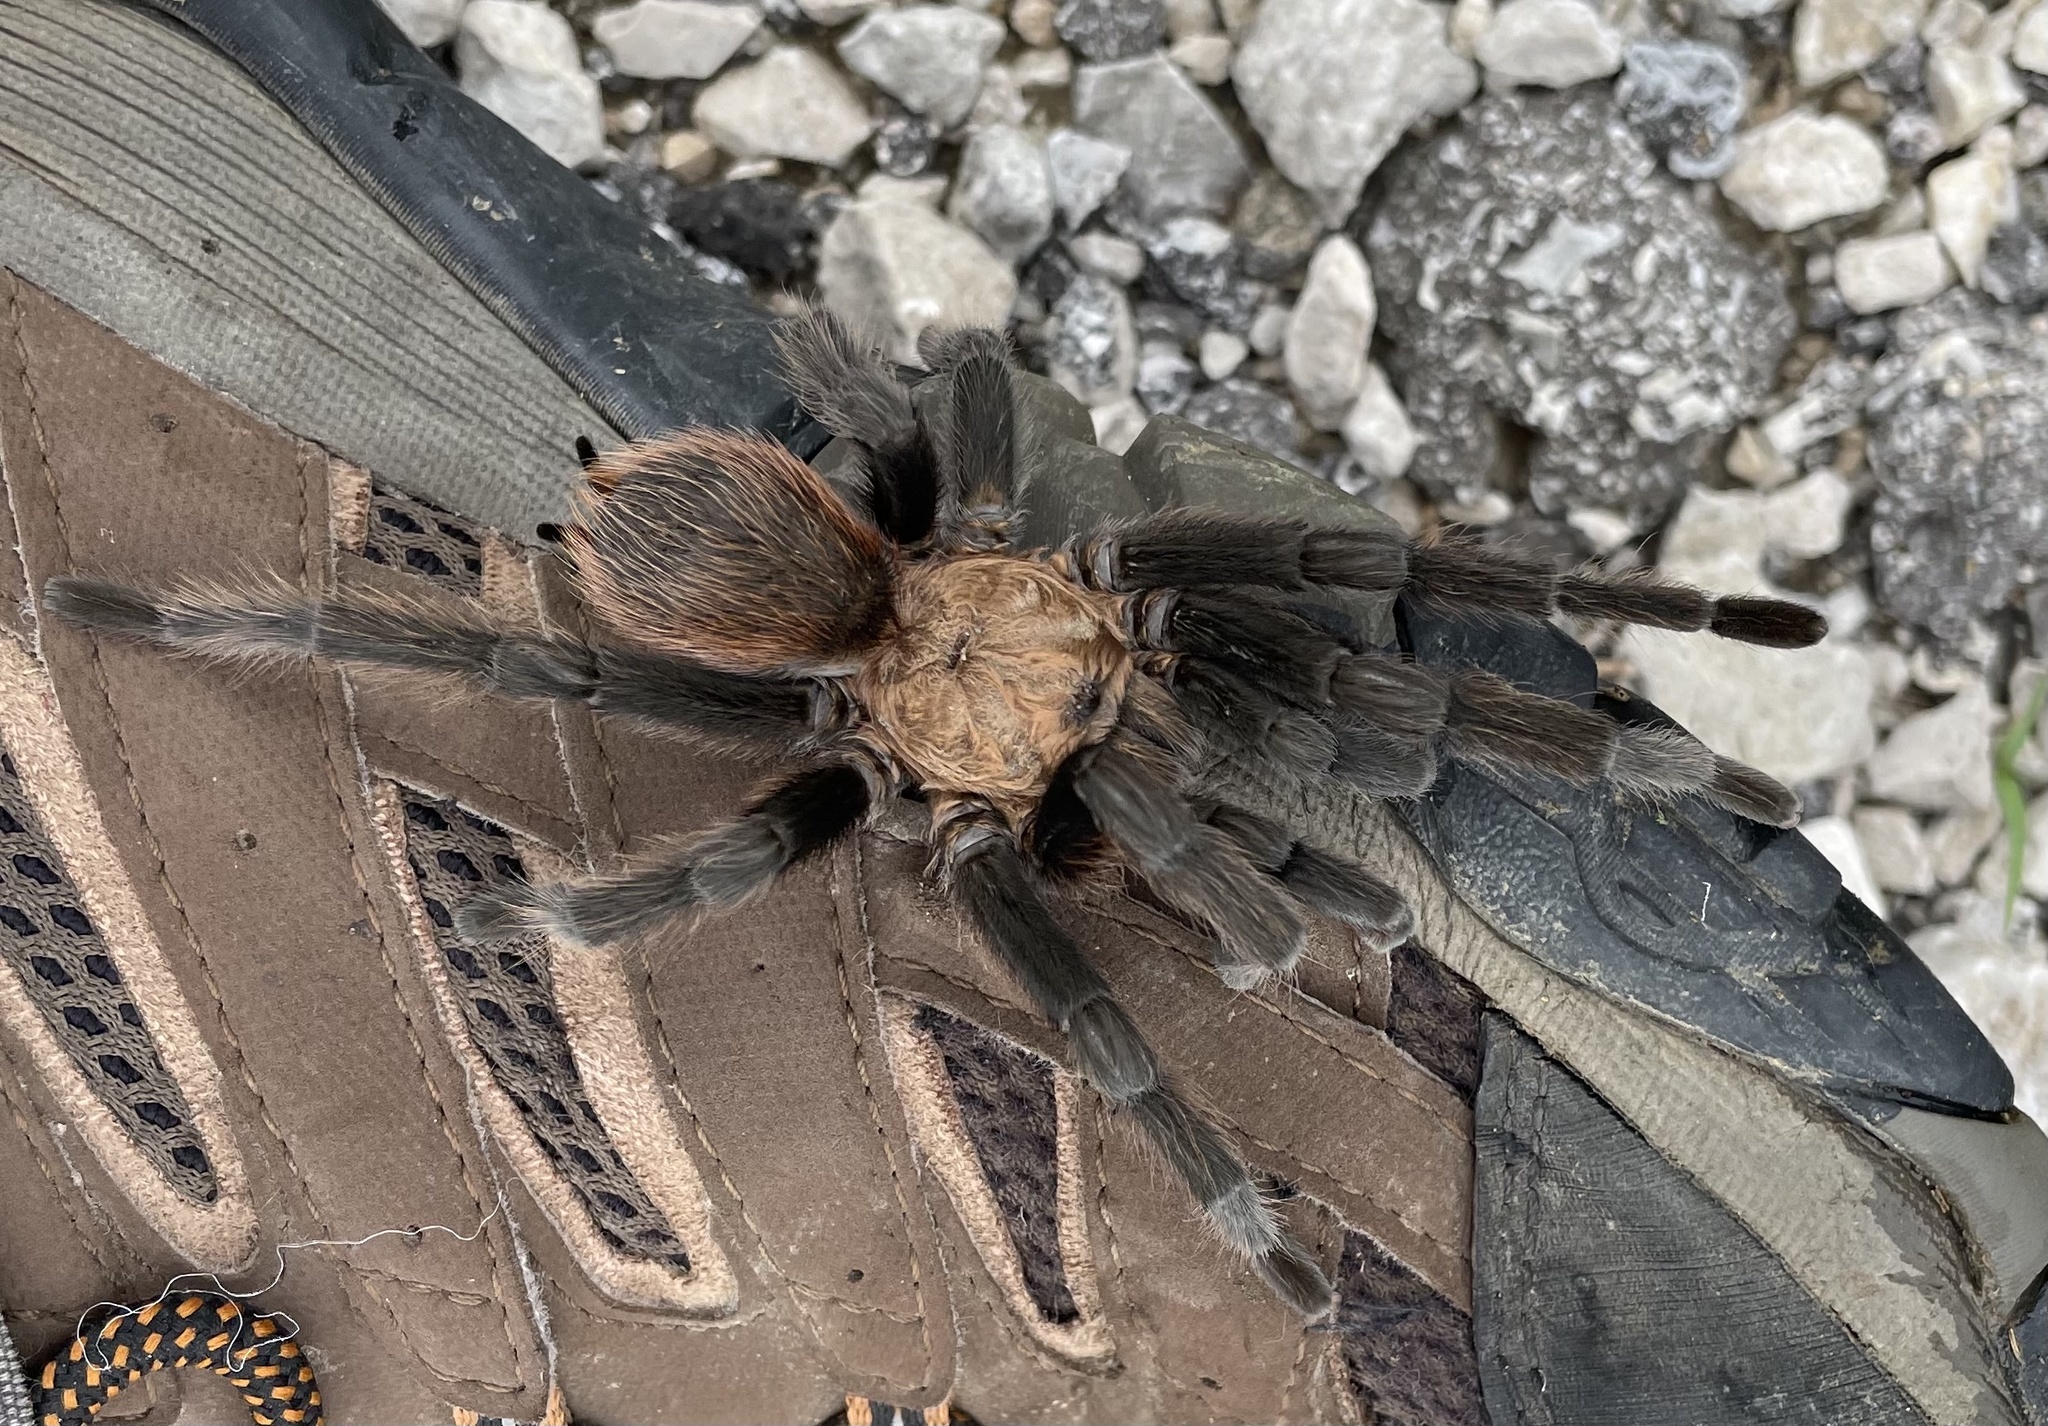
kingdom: Animalia
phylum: Arthropoda
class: Arachnida
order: Araneae
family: Theraphosidae
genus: Aphonopelma
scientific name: Aphonopelma hentzi
